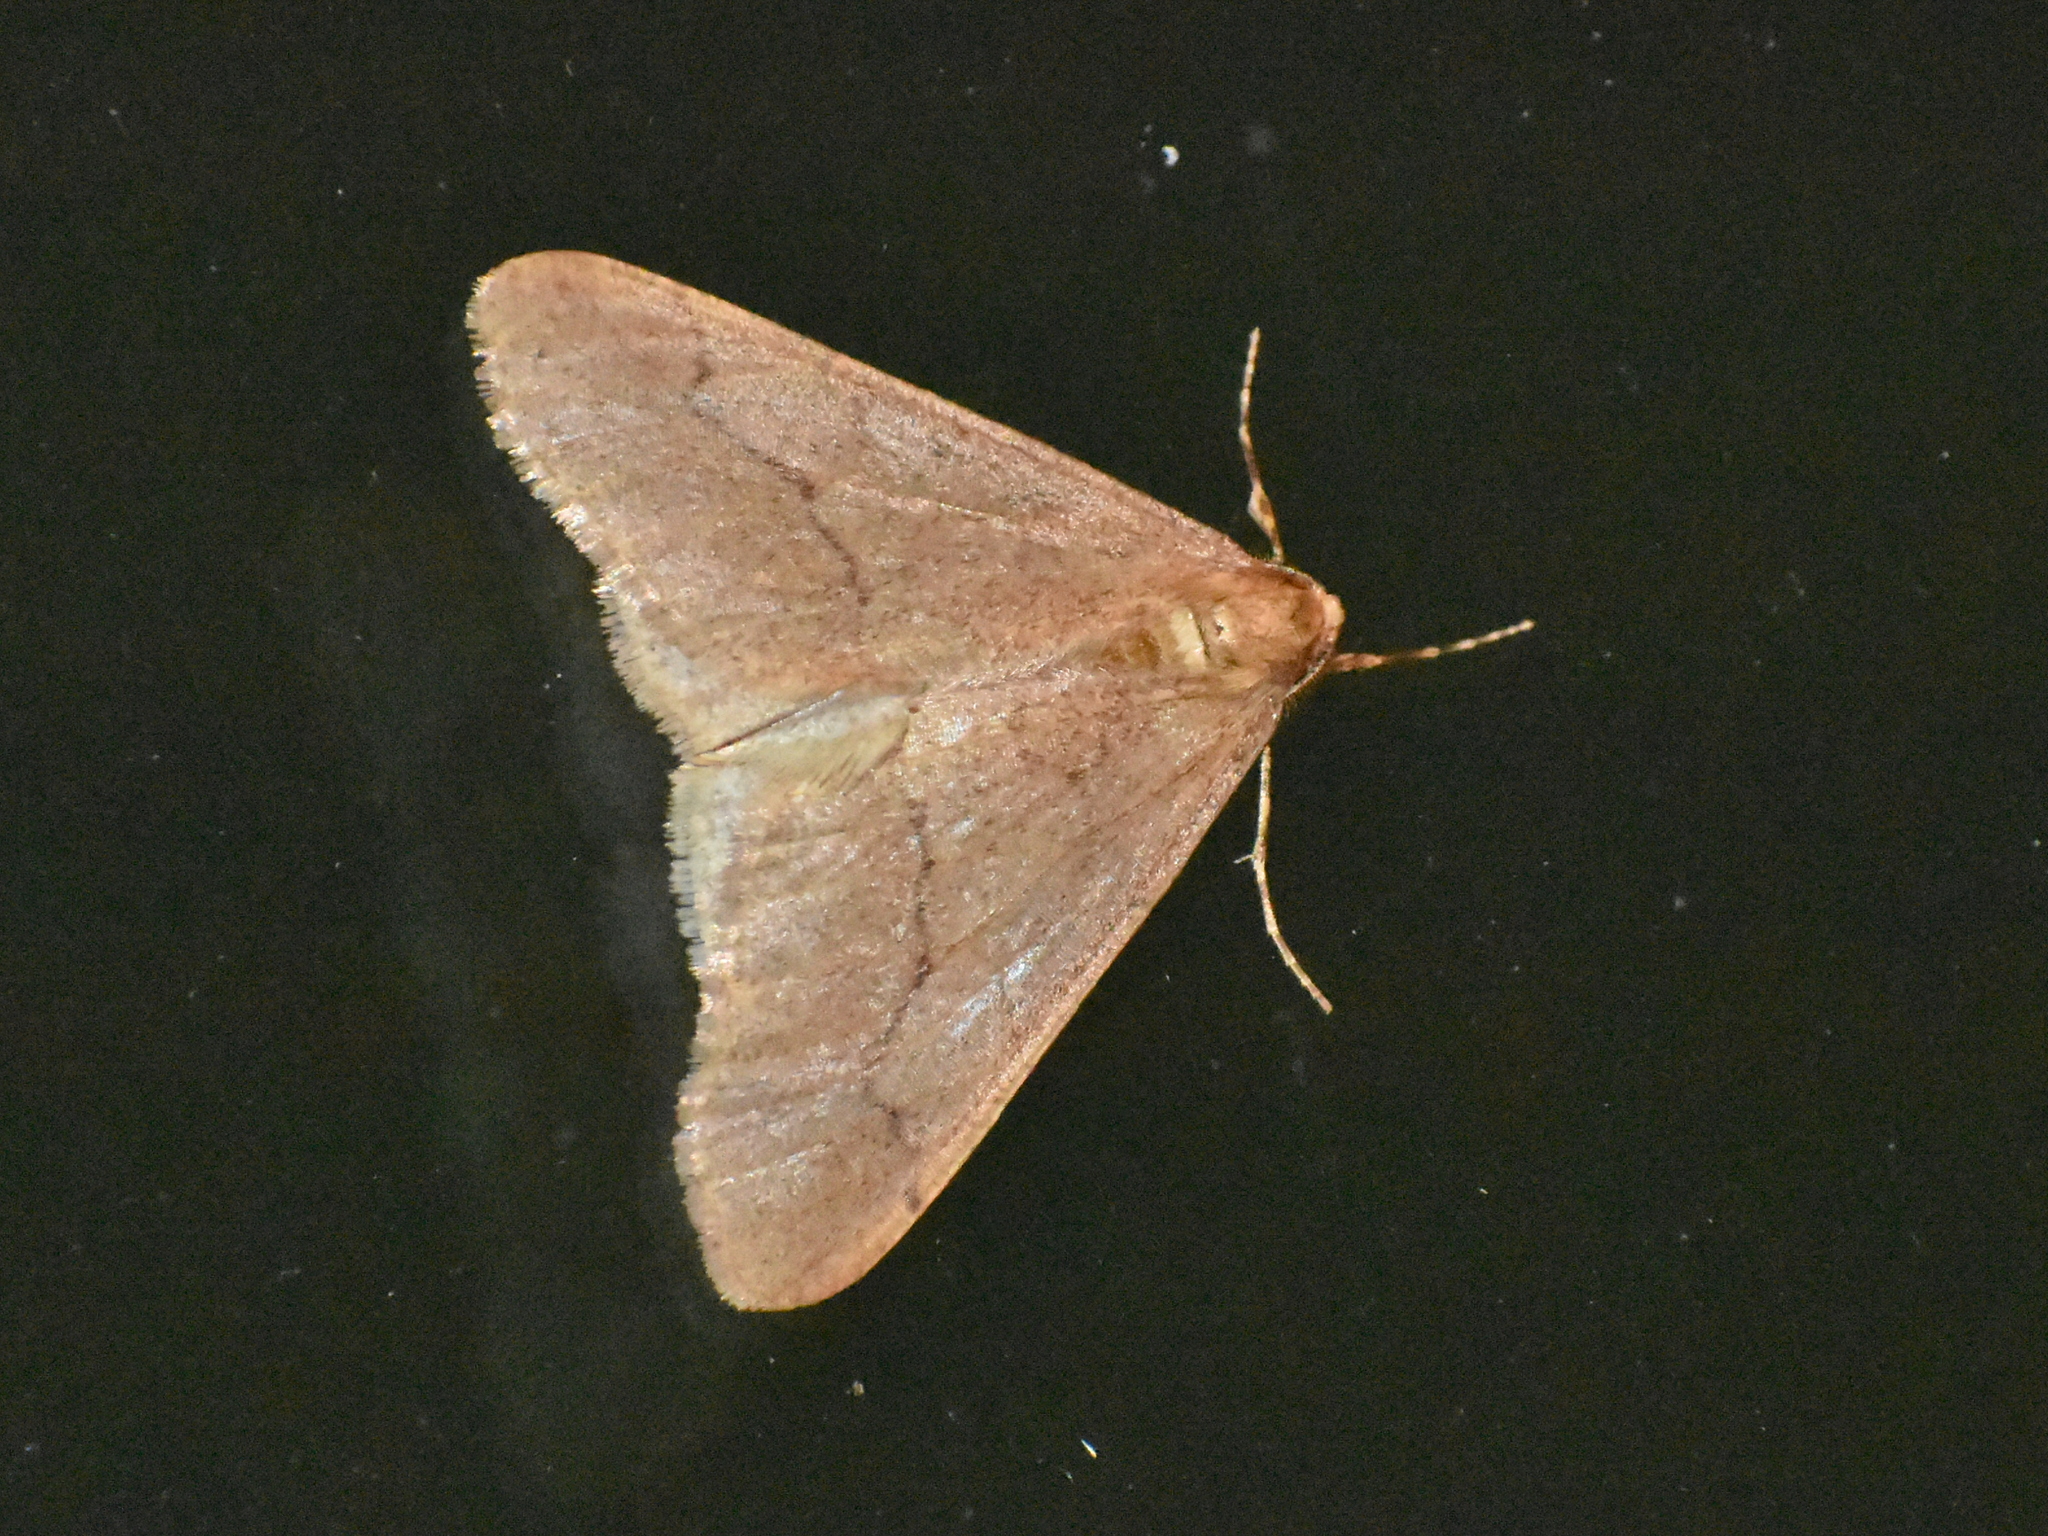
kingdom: Animalia
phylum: Arthropoda
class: Insecta
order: Lepidoptera
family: Geometridae
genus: Erannis
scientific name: Erannis tiliaria
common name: Linden looper
